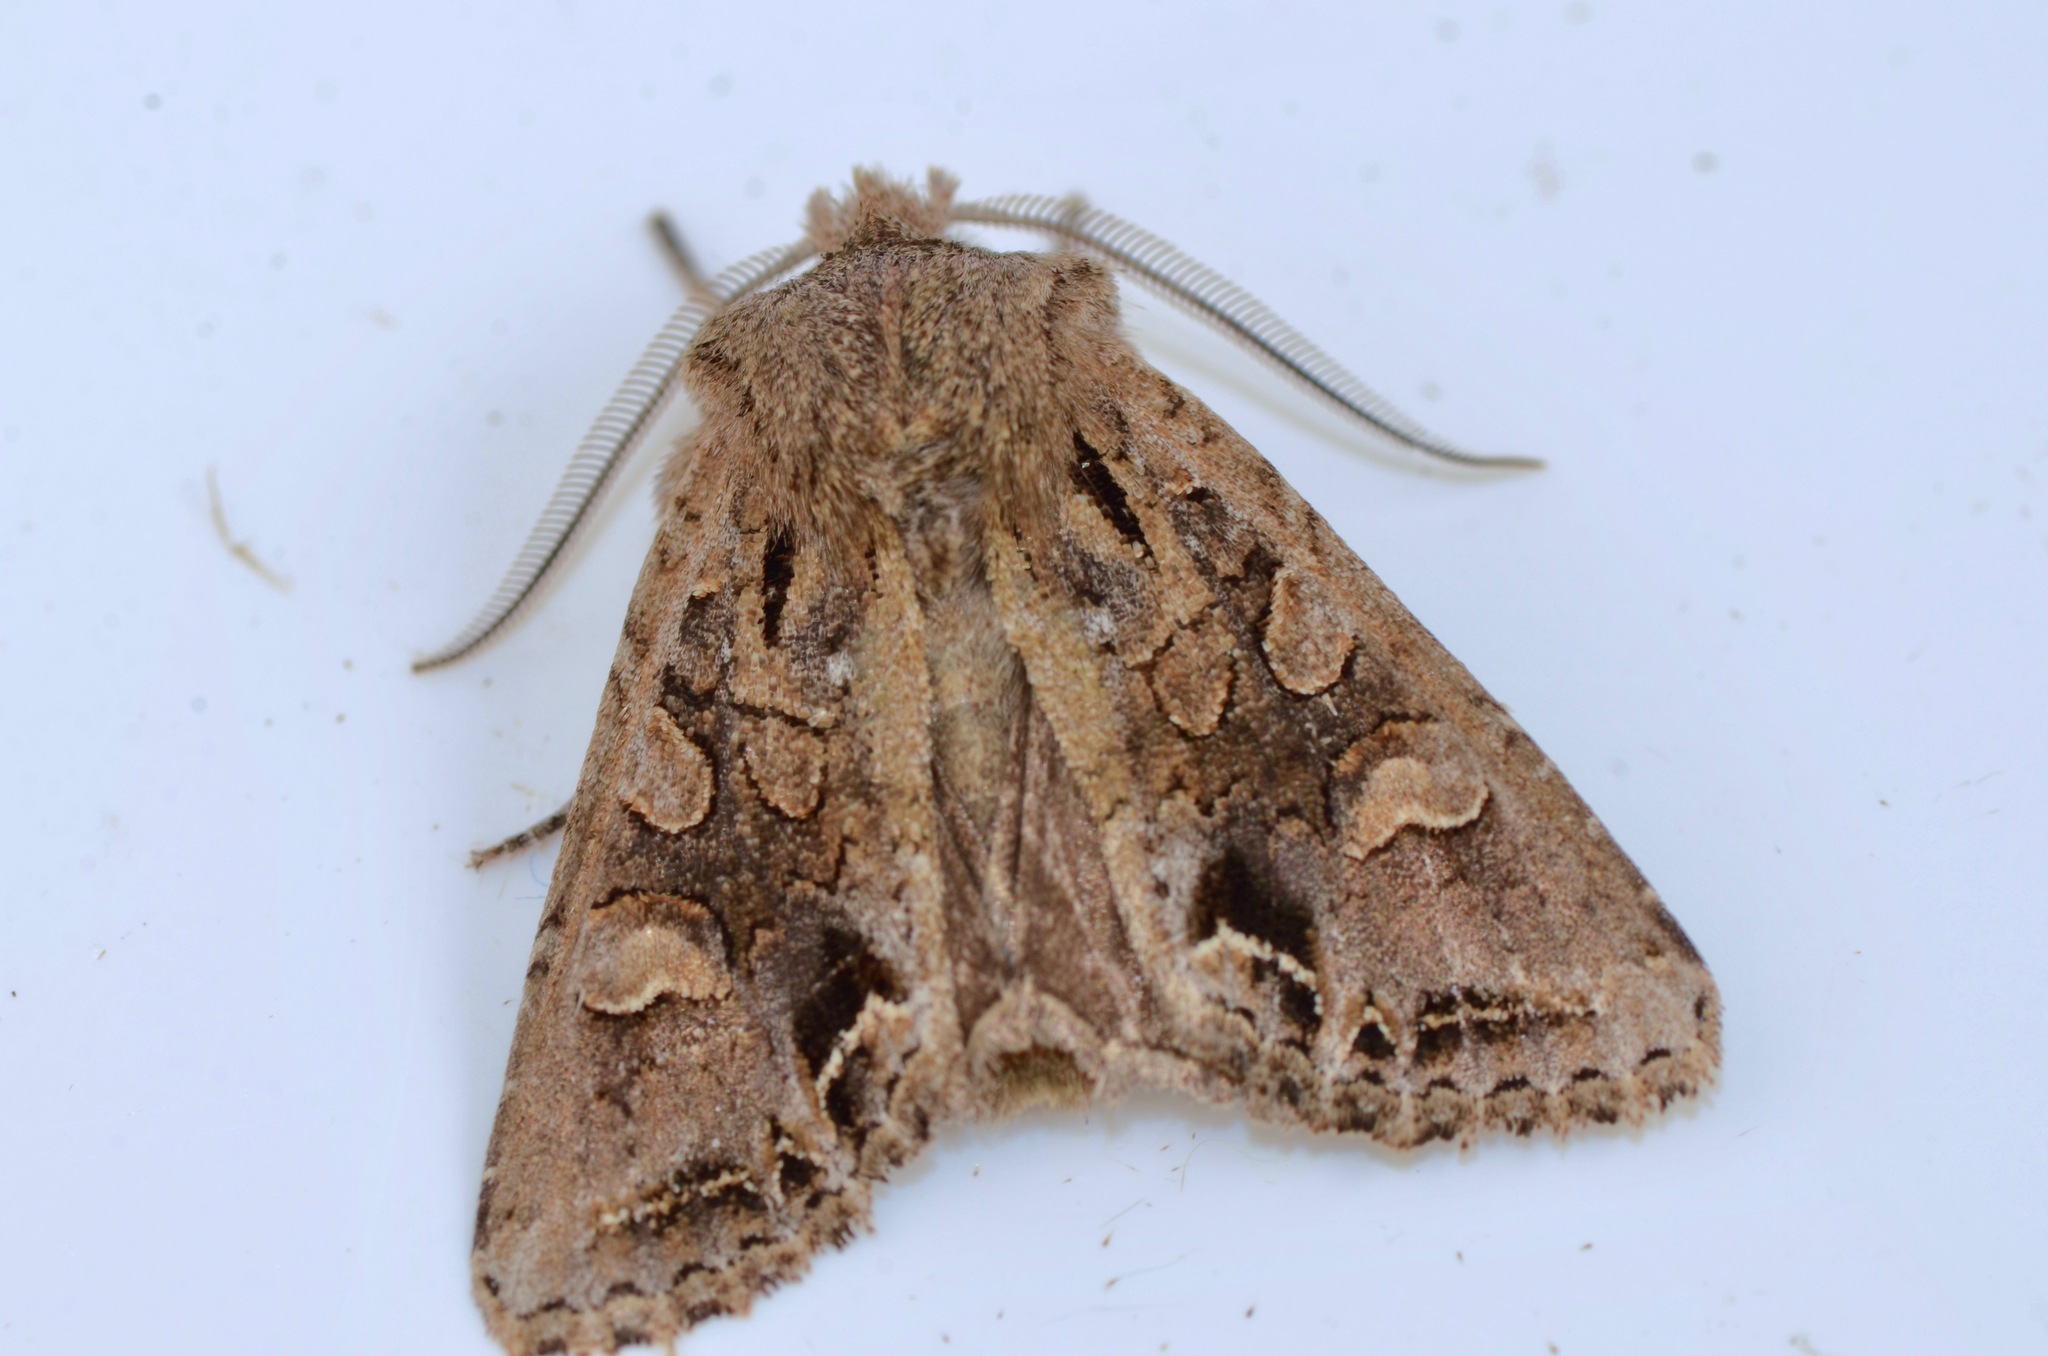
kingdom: Animalia
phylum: Arthropoda
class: Insecta
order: Lepidoptera
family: Noctuidae
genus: Ichneutica
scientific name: Ichneutica skelloni
